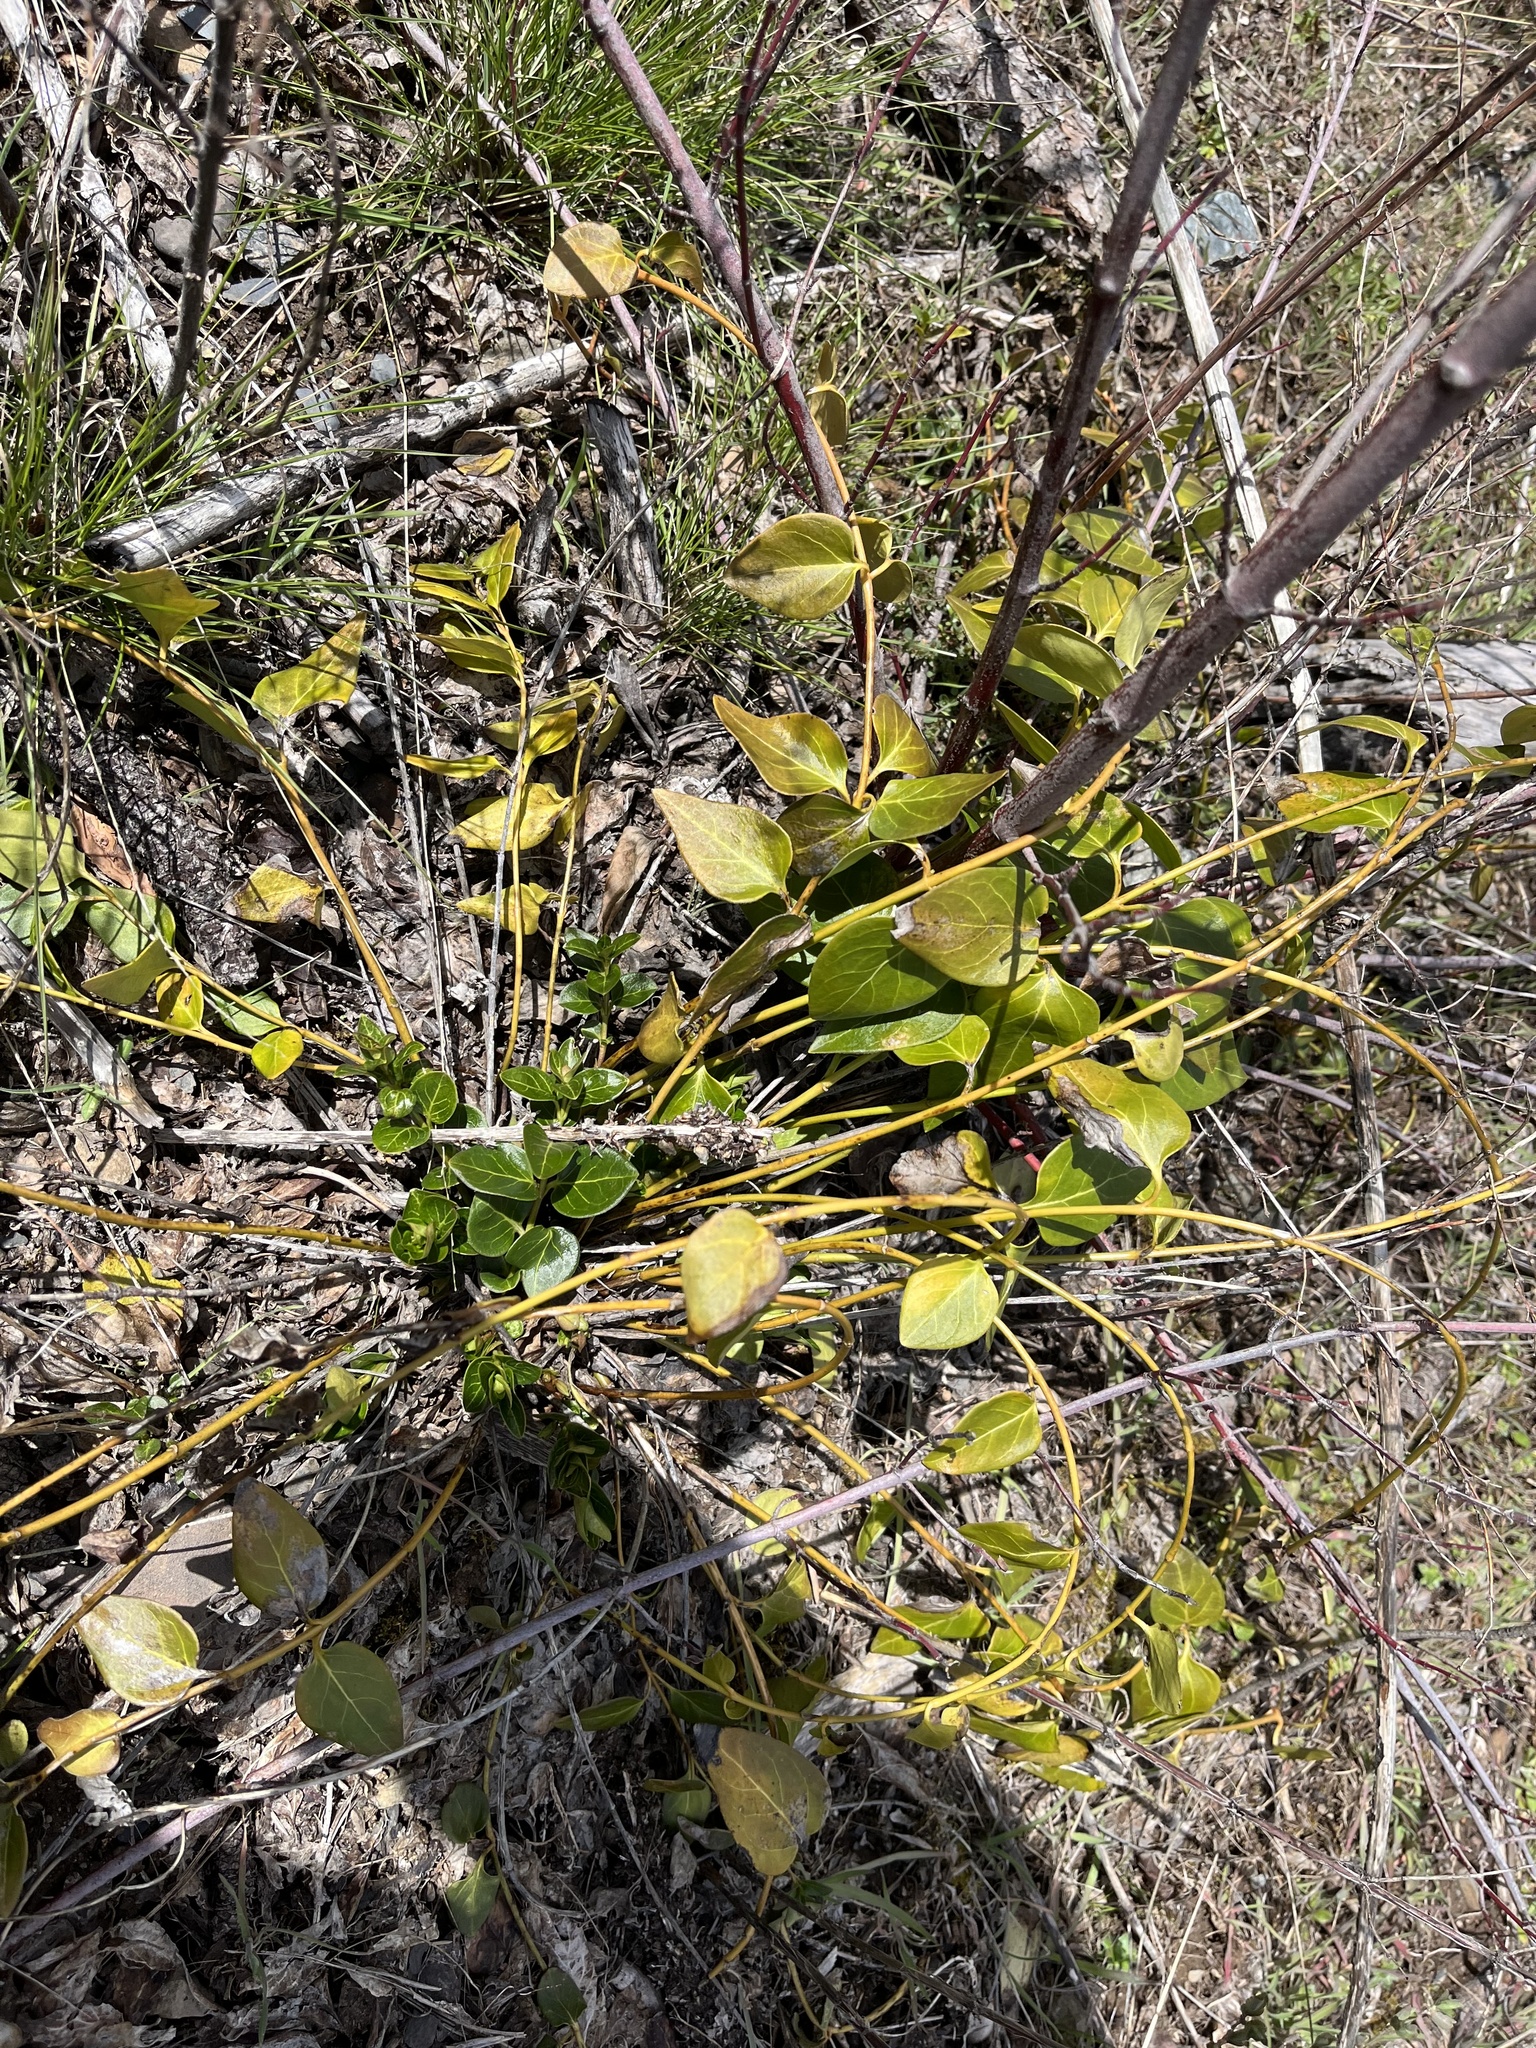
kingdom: Plantae
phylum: Tracheophyta
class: Magnoliopsida
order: Gentianales
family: Apocynaceae
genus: Vinca
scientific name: Vinca major
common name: Greater periwinkle
